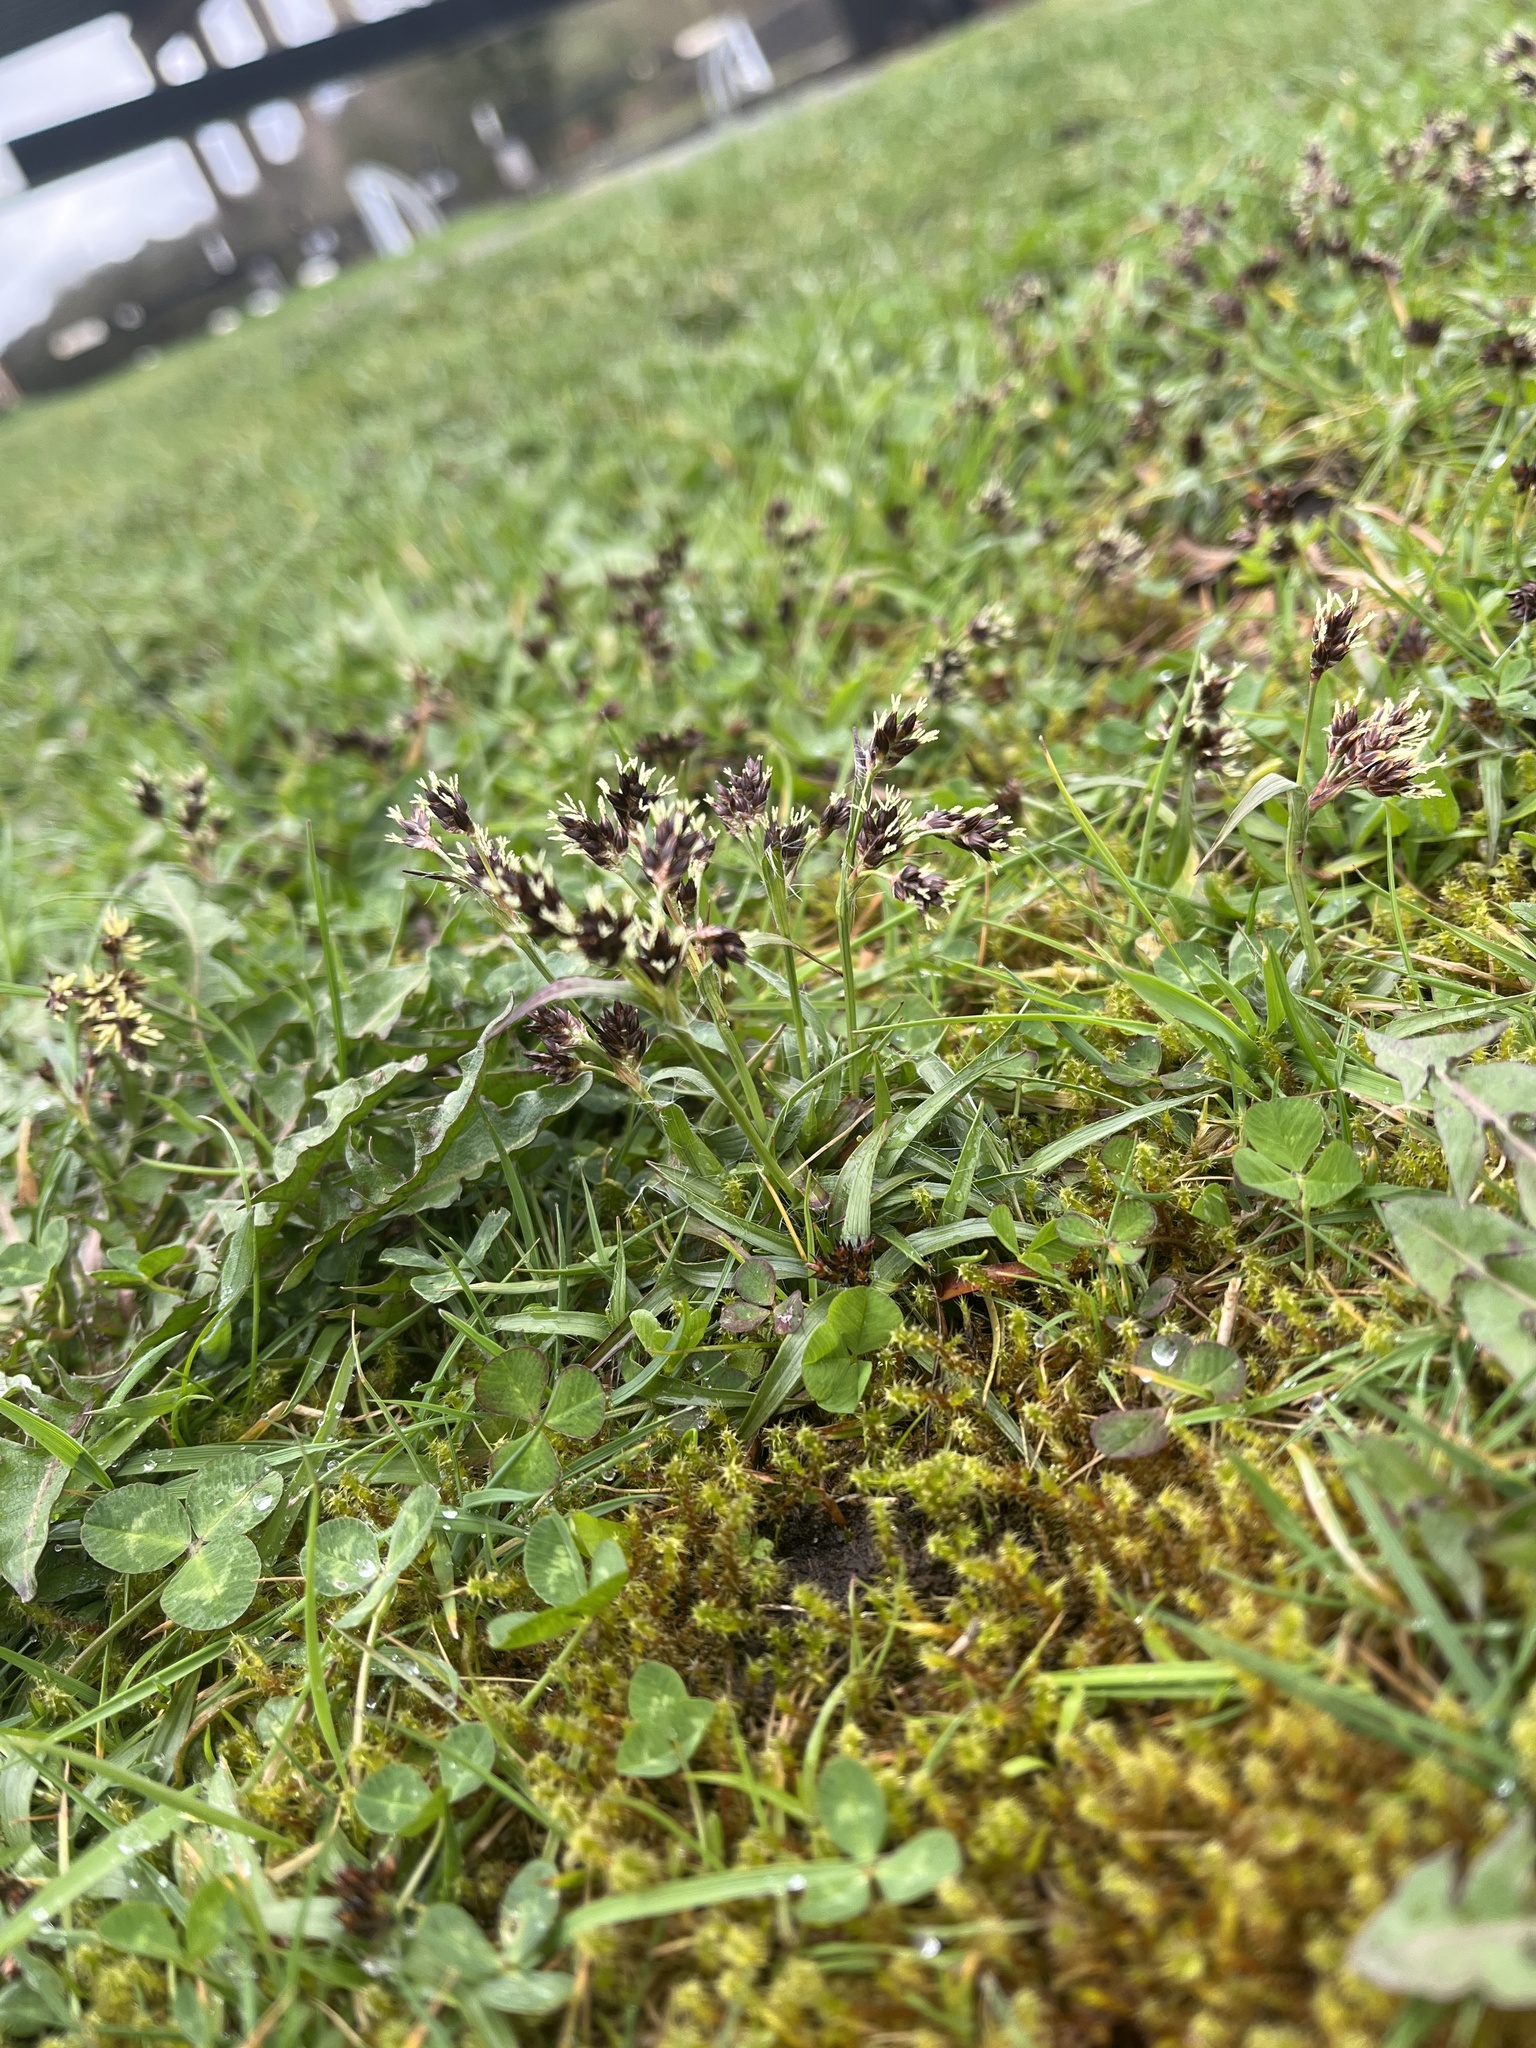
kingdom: Plantae
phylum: Tracheophyta
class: Liliopsida
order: Poales
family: Juncaceae
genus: Luzula
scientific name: Luzula campestris
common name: Field wood-rush
